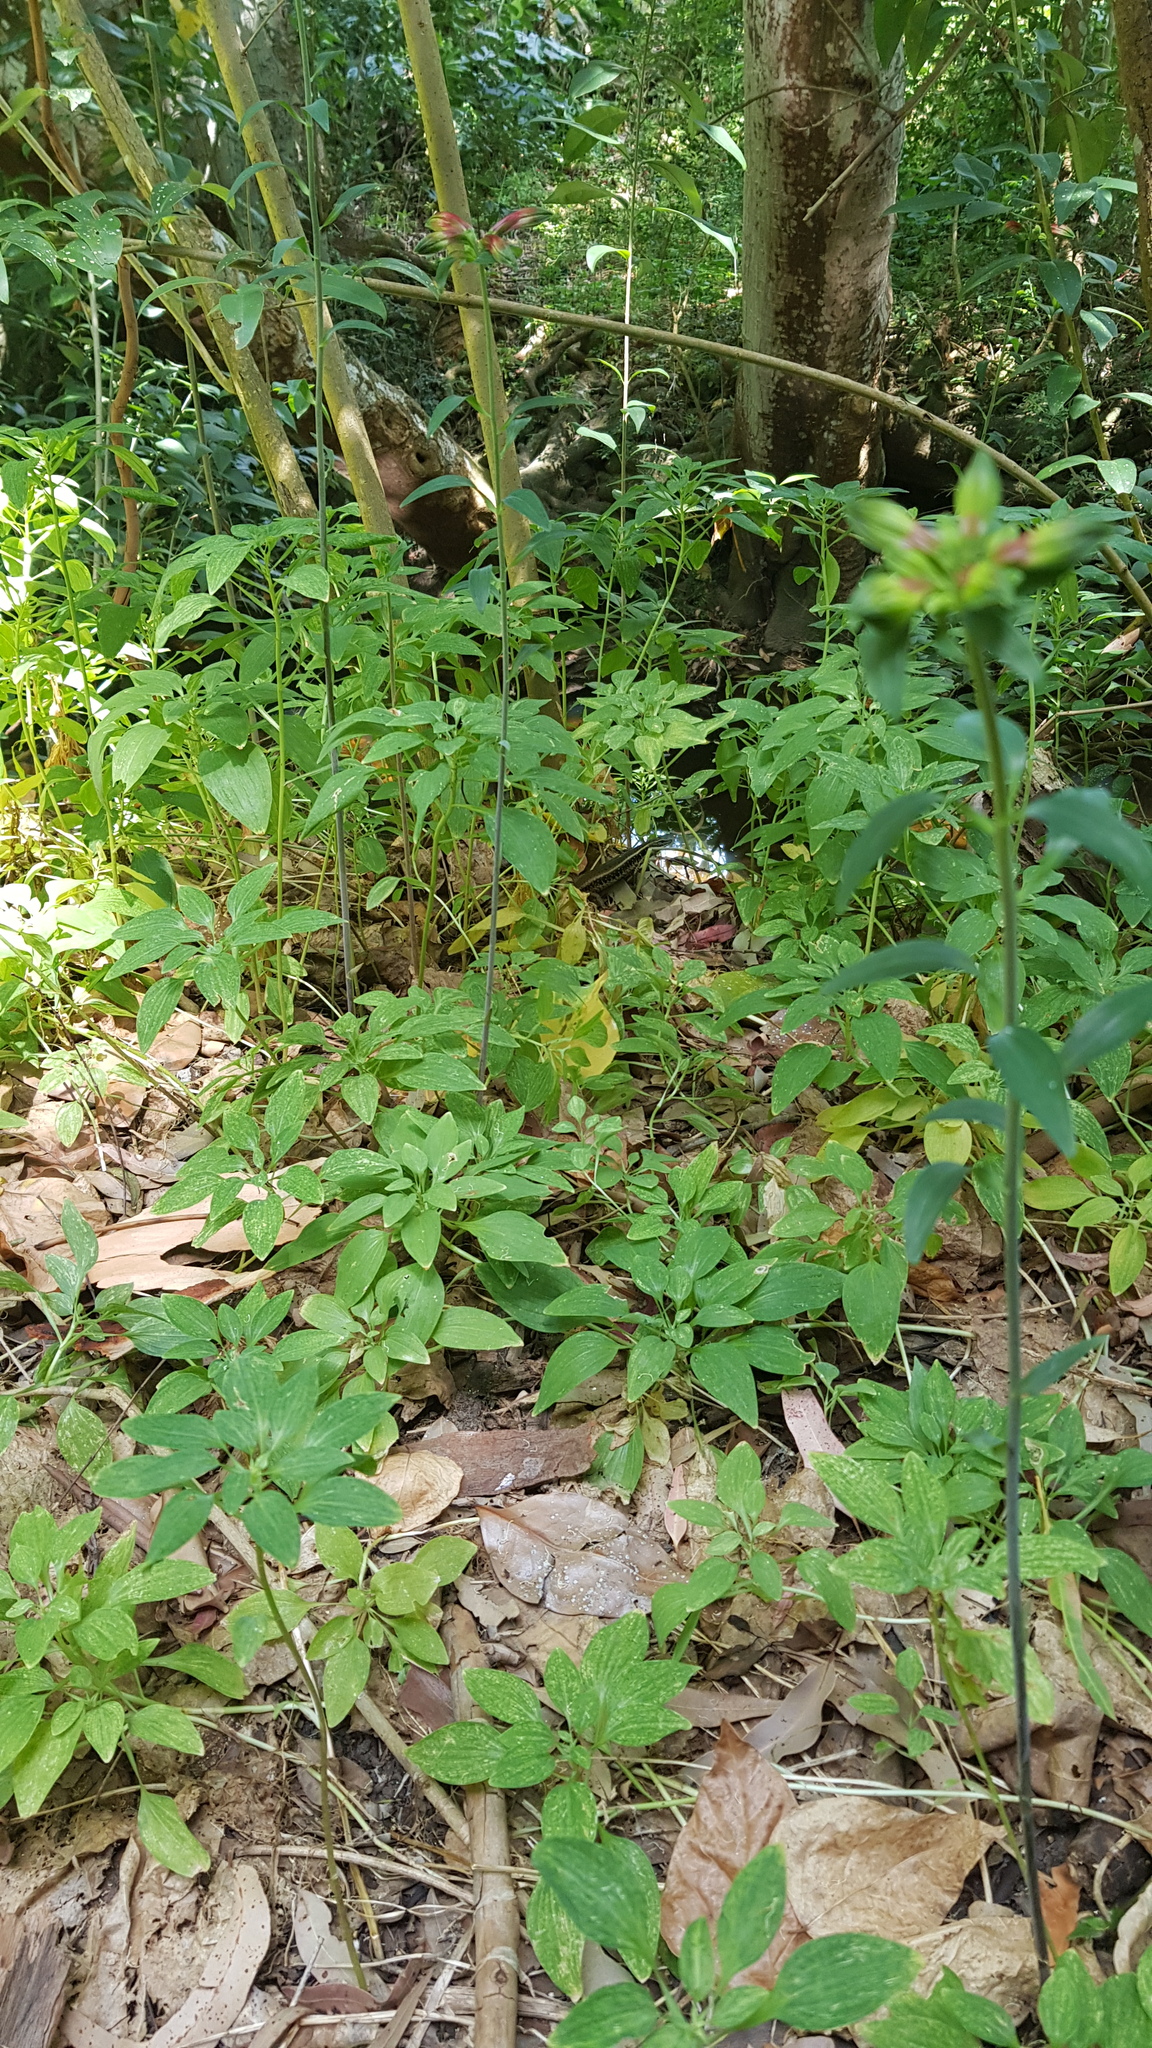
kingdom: Animalia
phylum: Chordata
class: Squamata
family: Scincidae
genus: Eulamprus
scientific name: Eulamprus quoyii
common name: Eastern water skink
